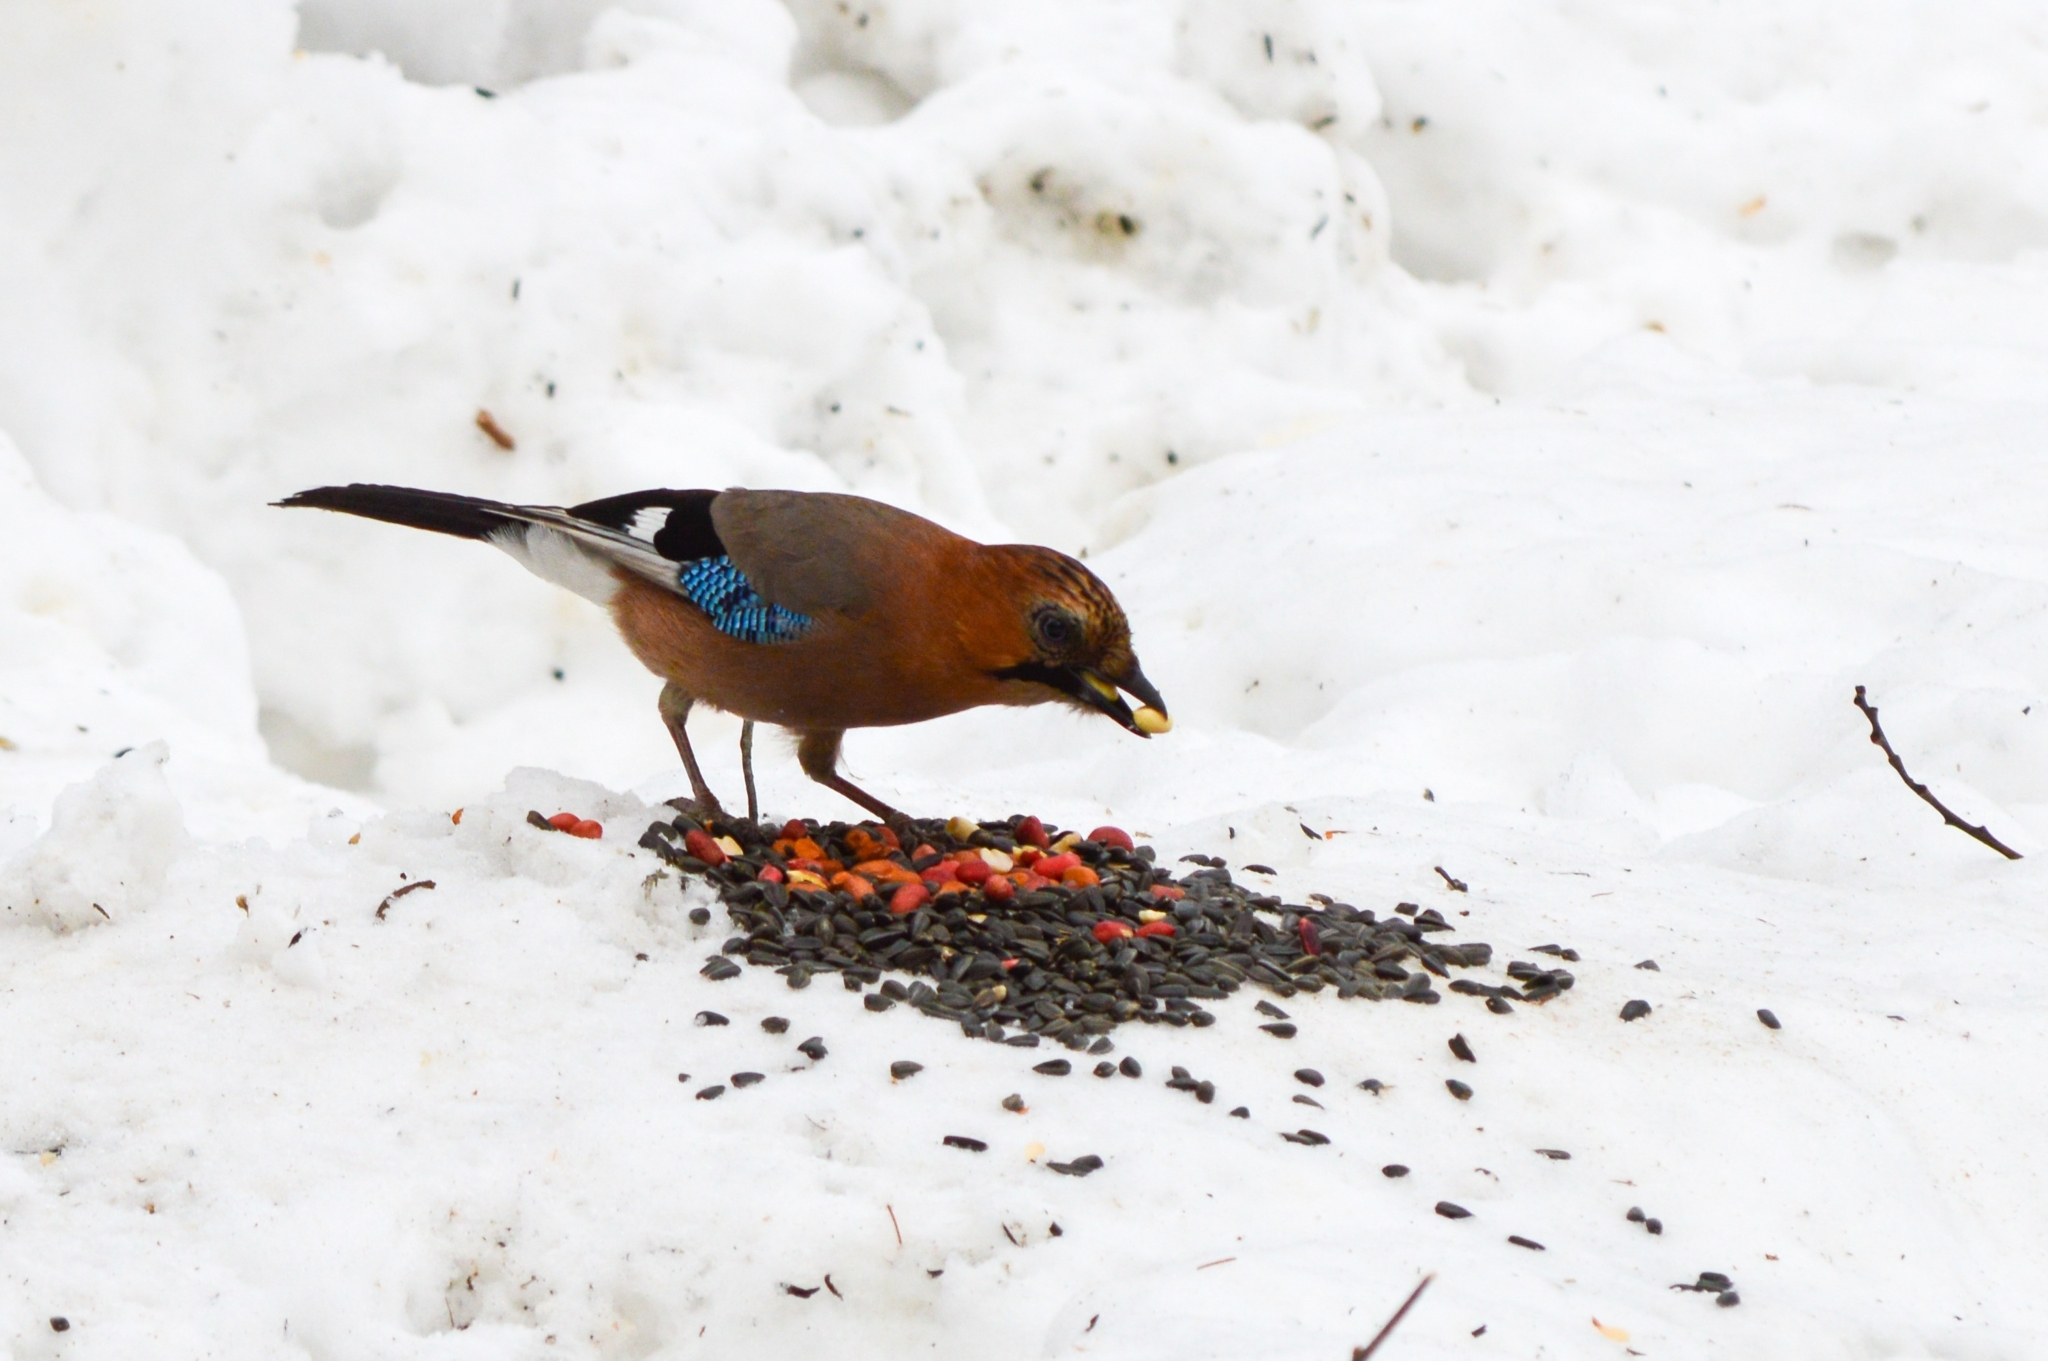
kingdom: Animalia
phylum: Chordata
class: Aves
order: Passeriformes
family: Corvidae
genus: Garrulus
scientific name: Garrulus glandarius
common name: Eurasian jay
